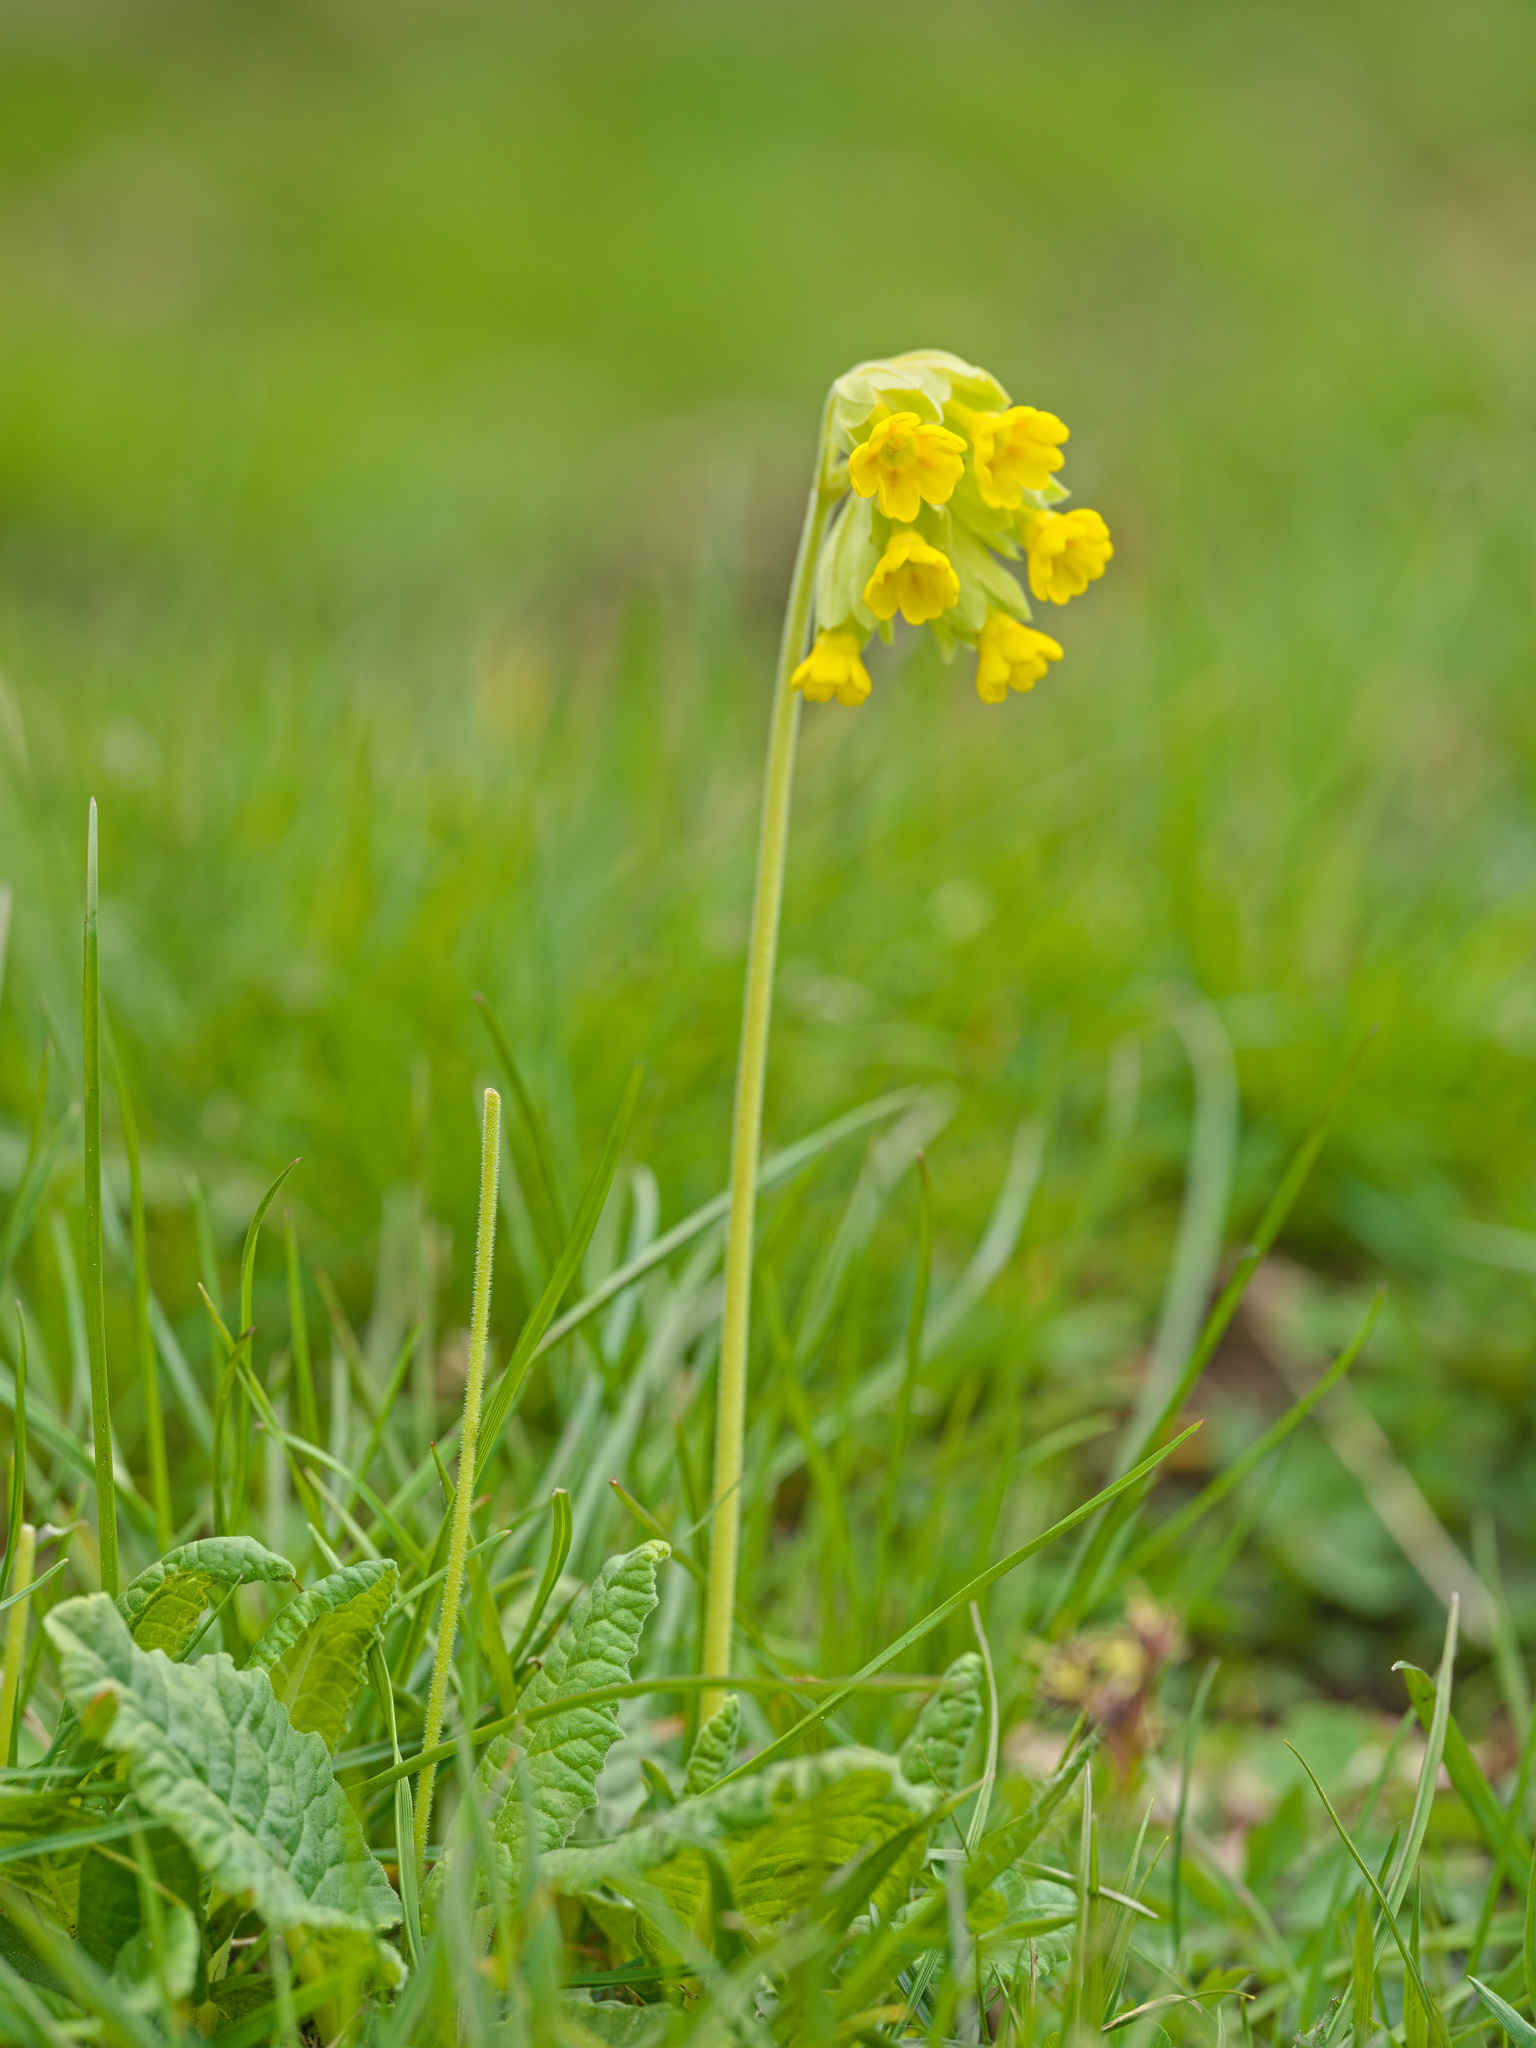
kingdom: Plantae
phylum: Tracheophyta
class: Magnoliopsida
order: Ericales
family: Primulaceae
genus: Primula
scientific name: Primula veris
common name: Cowslip
